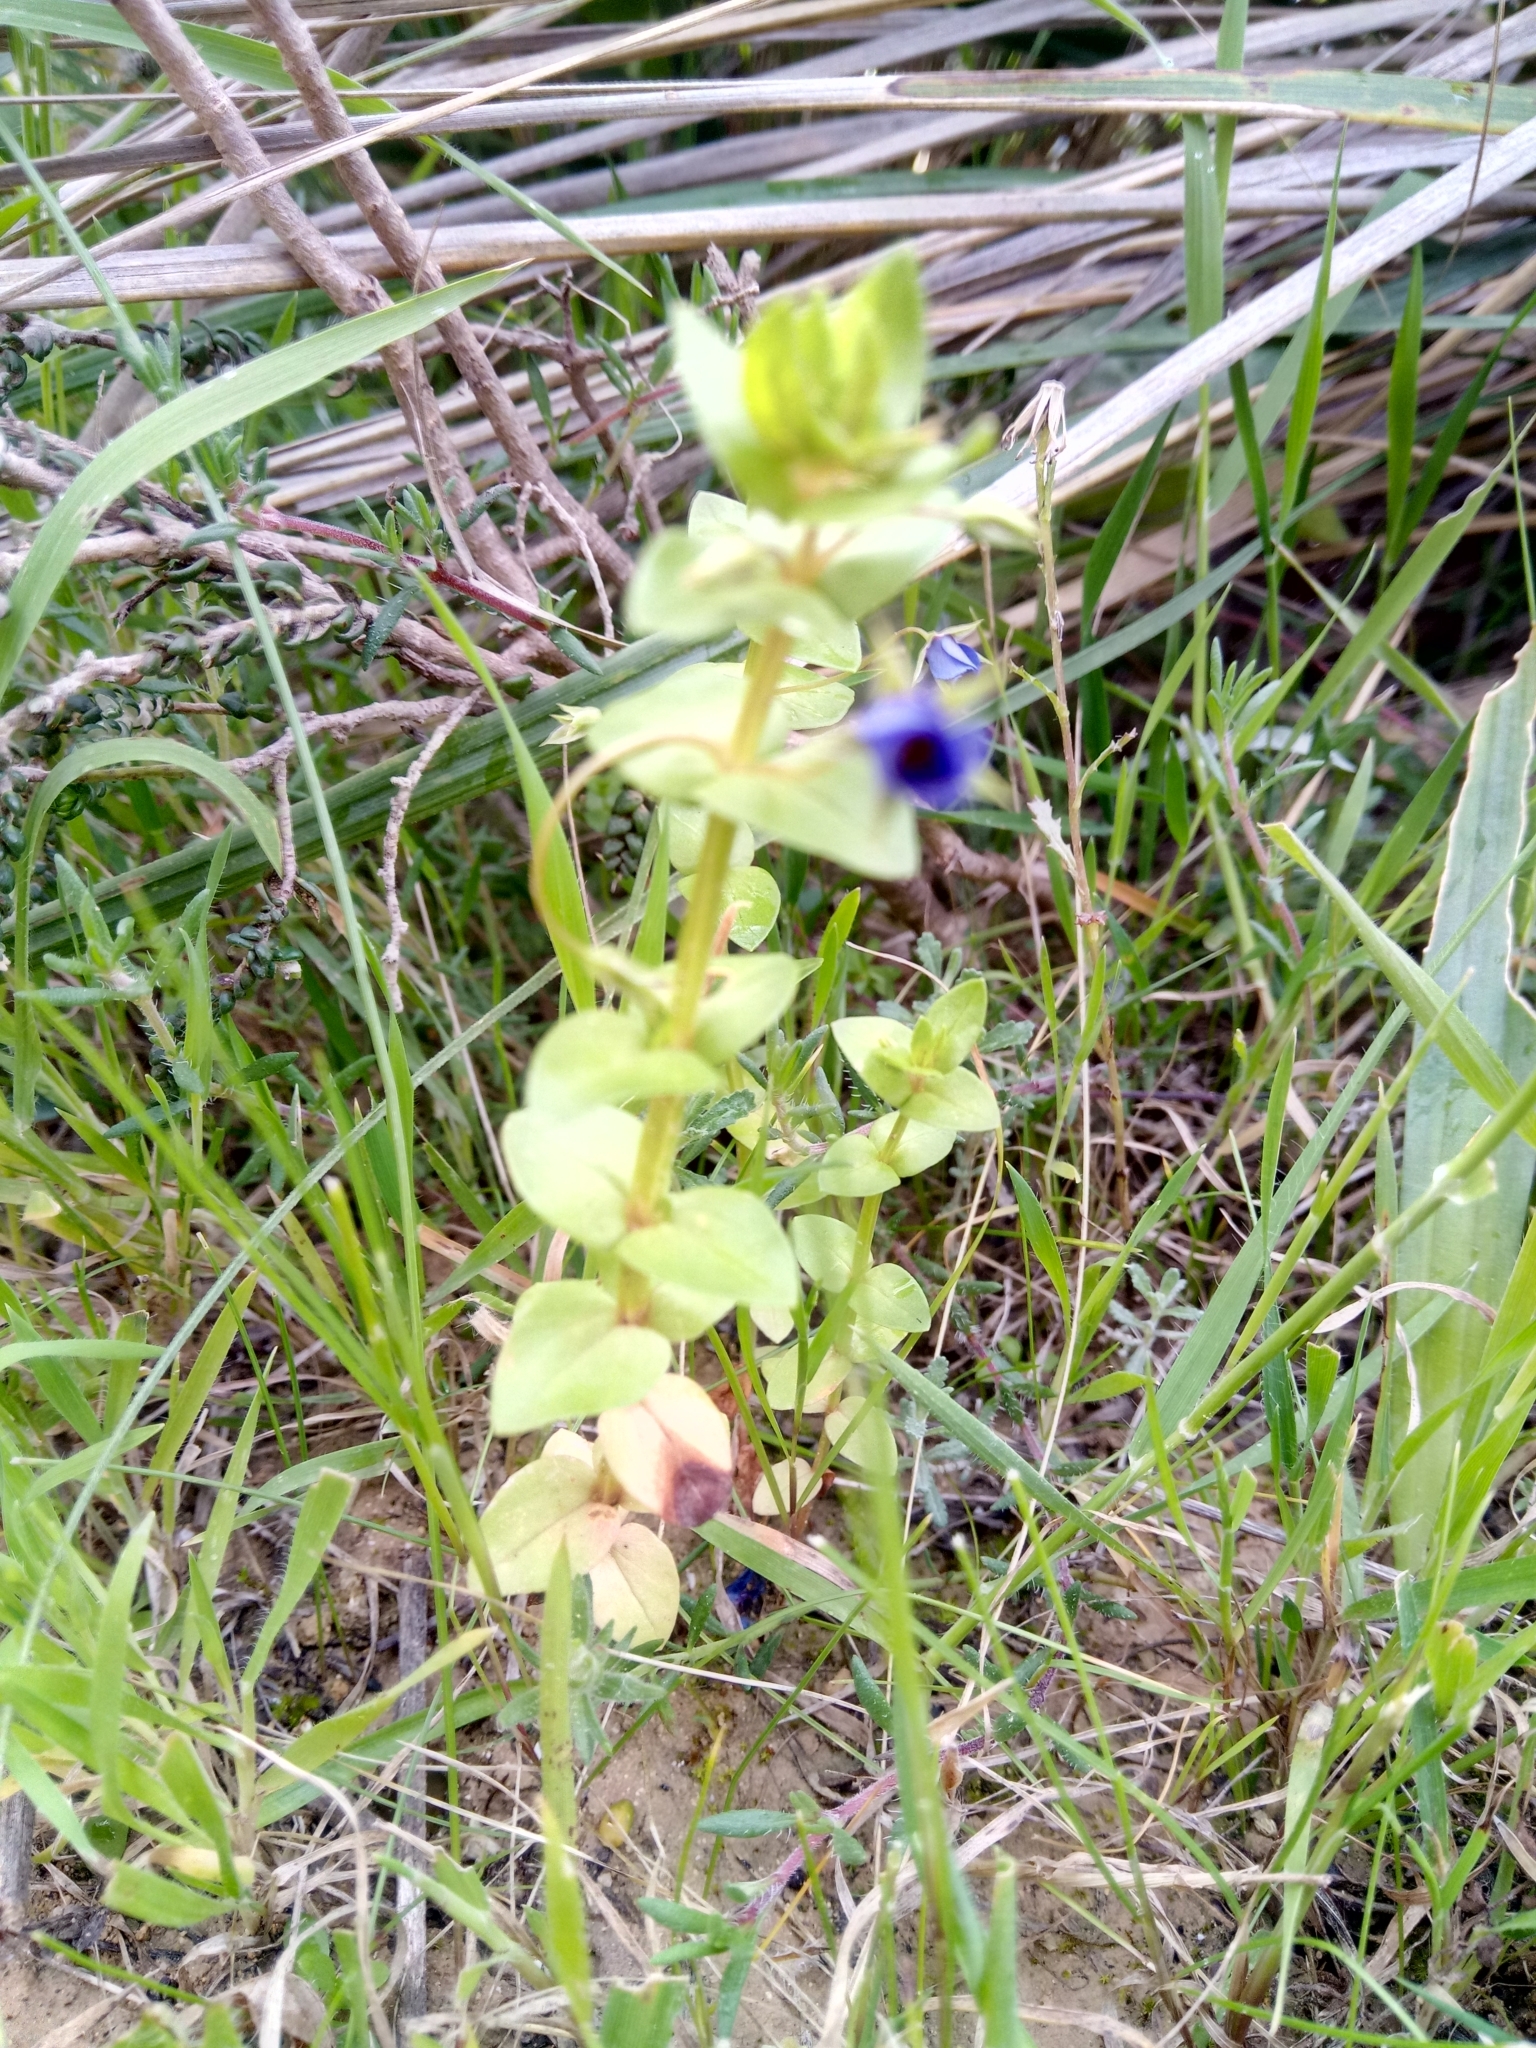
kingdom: Plantae
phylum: Tracheophyta
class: Magnoliopsida
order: Ericales
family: Primulaceae
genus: Lysimachia
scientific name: Lysimachia loeflingii
